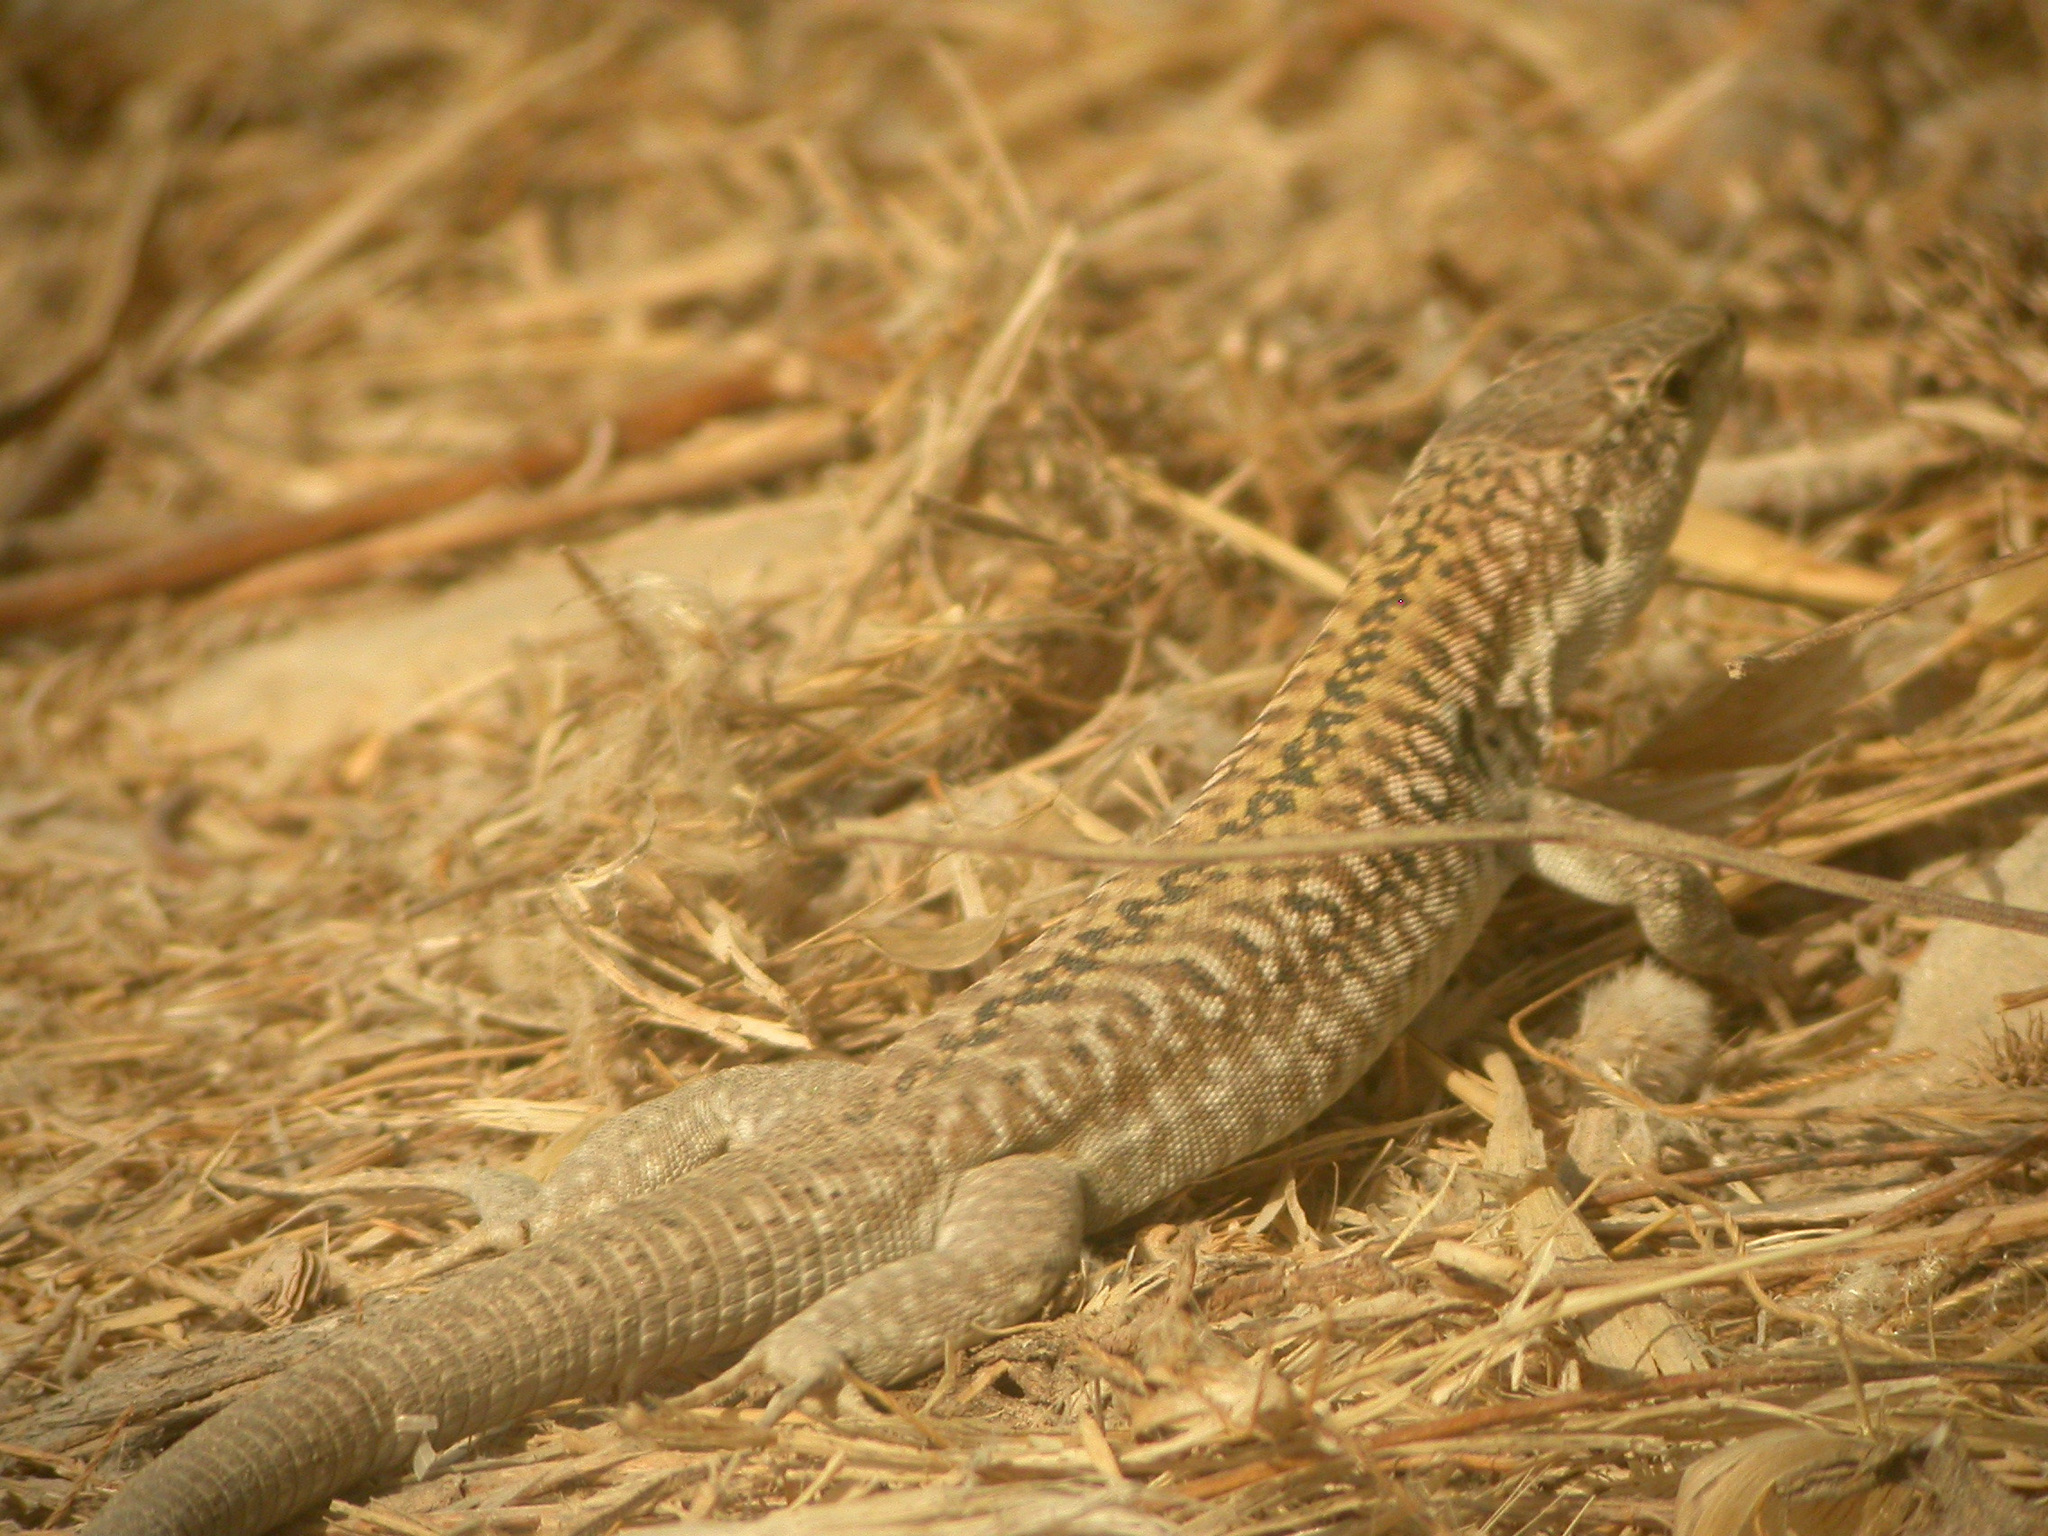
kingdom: Animalia
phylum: Chordata
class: Squamata
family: Lacertidae
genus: Podarcis
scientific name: Podarcis siculus
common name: Italian wall lizard
